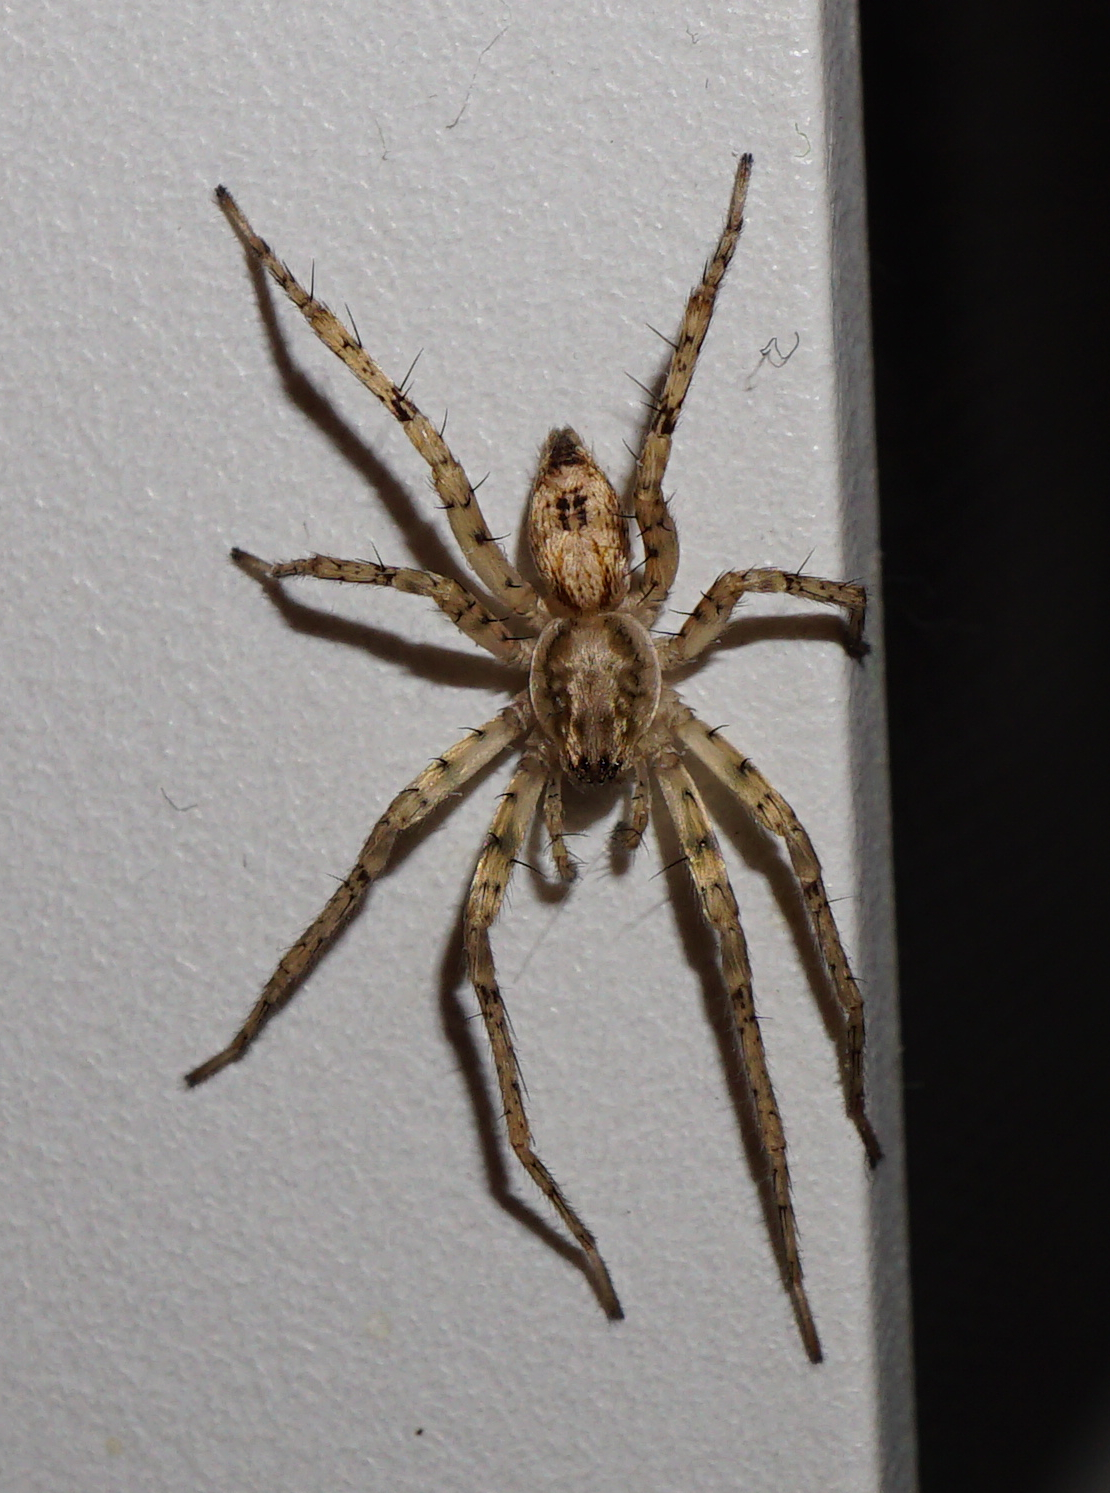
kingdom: Animalia
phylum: Arthropoda
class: Arachnida
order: Araneae
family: Anyphaenidae
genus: Anyphaena
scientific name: Anyphaena accentuata
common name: Buzzing spider
